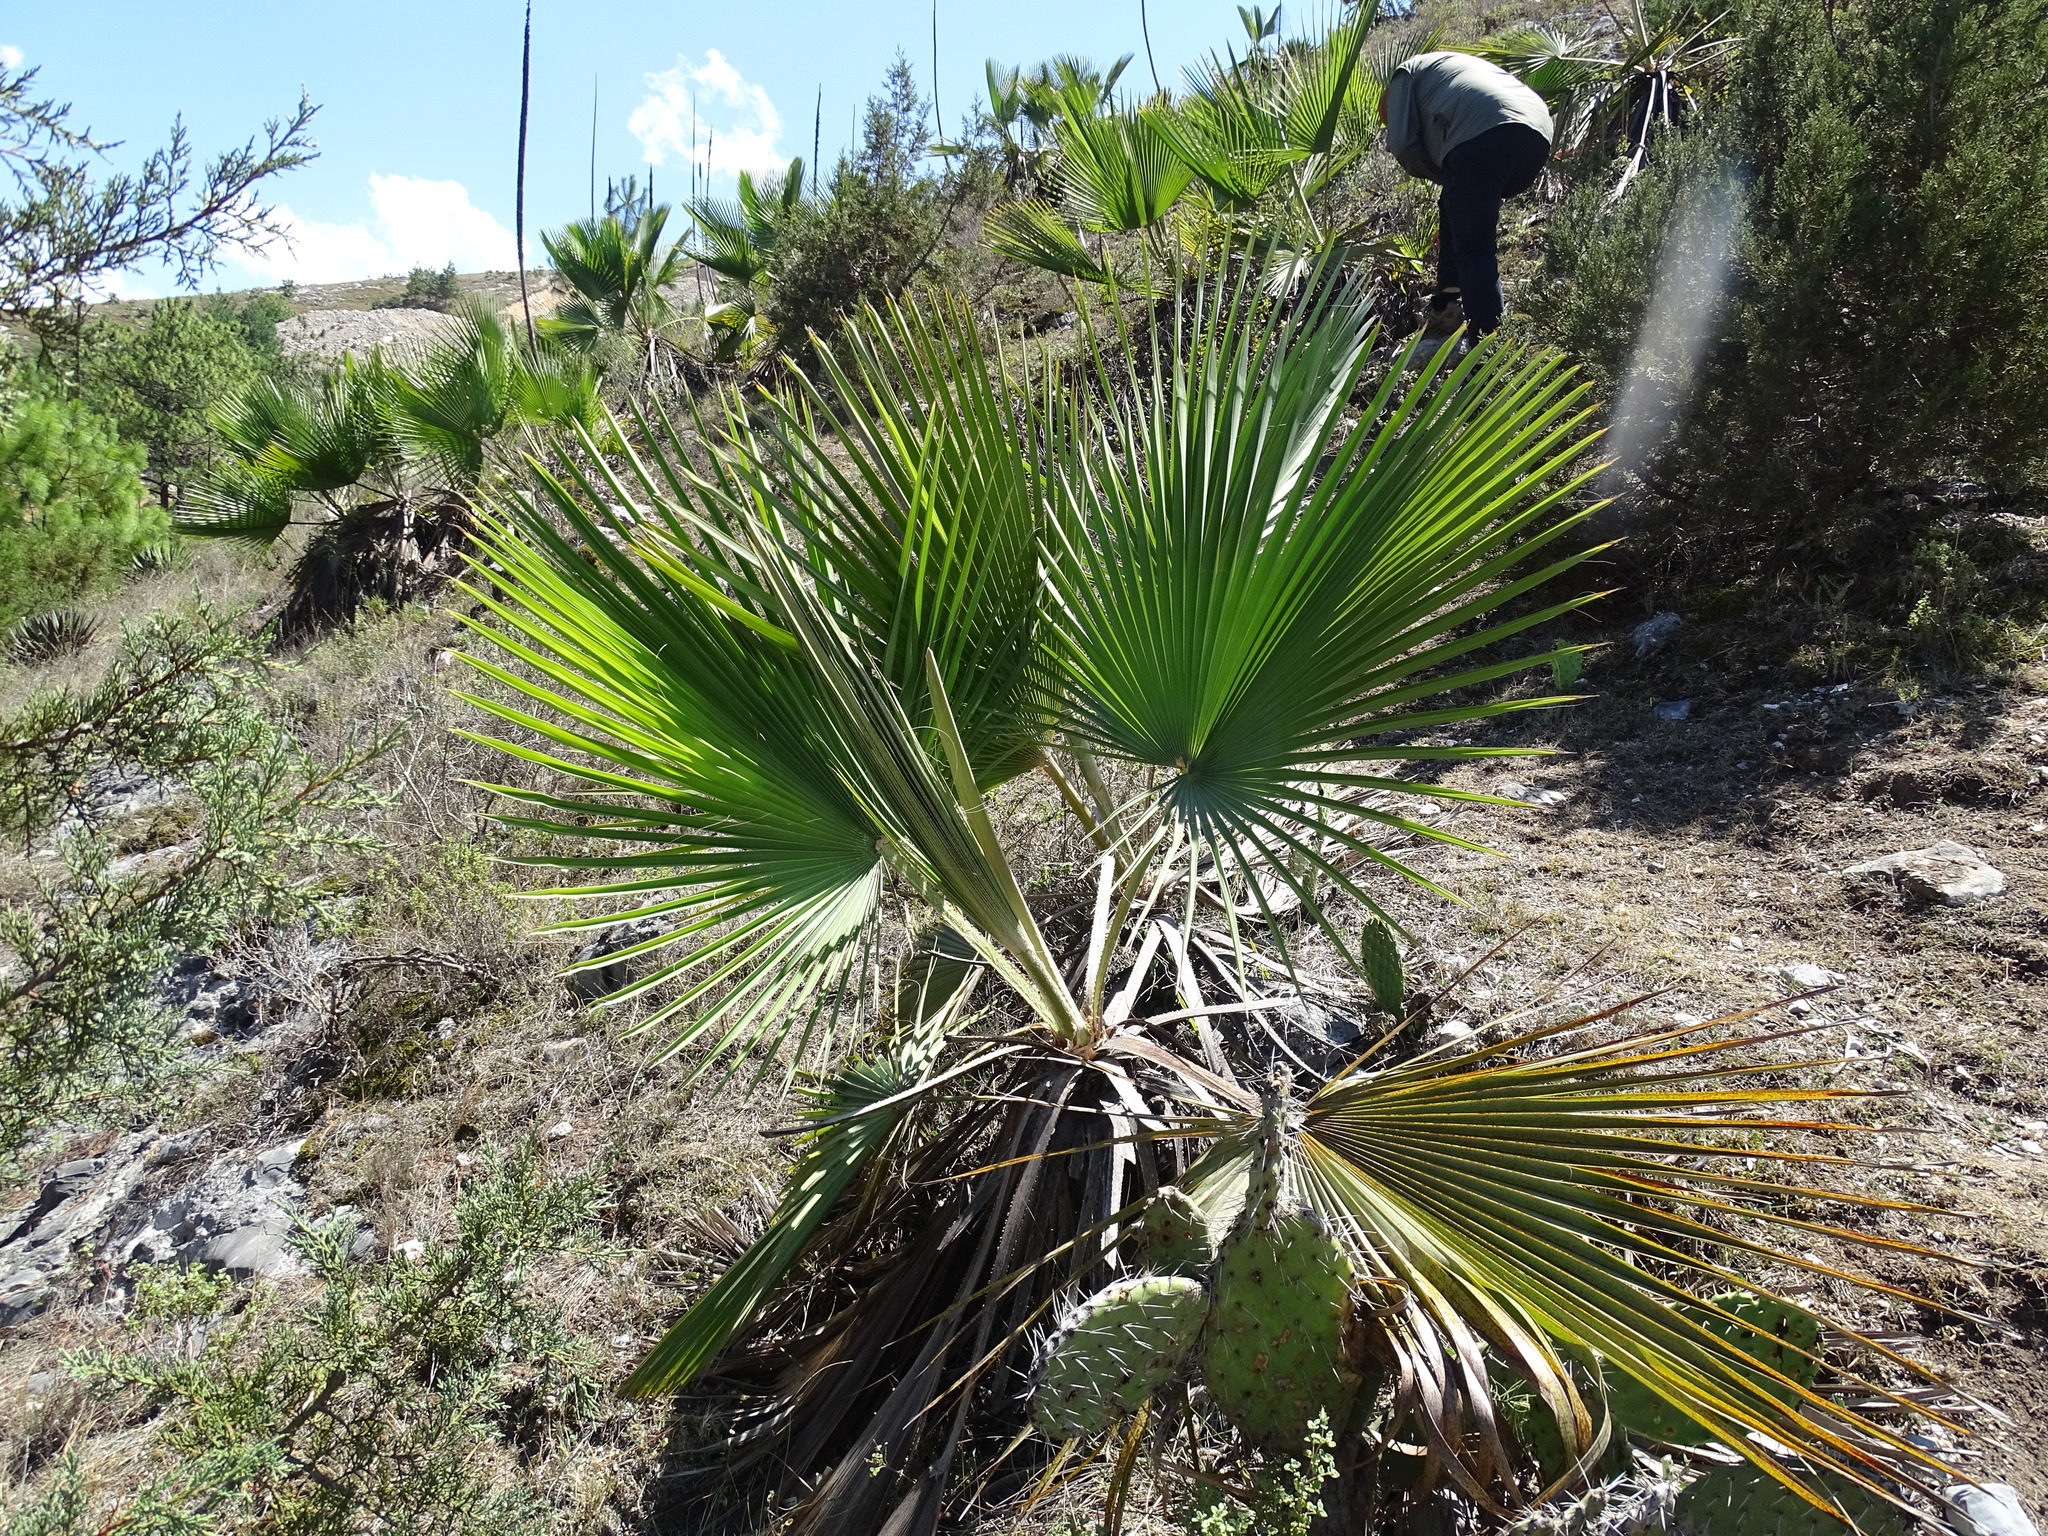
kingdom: Plantae
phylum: Tracheophyta
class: Liliopsida
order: Arecales
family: Arecaceae
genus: Brahea
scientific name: Brahea dulcis
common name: Apak palm
